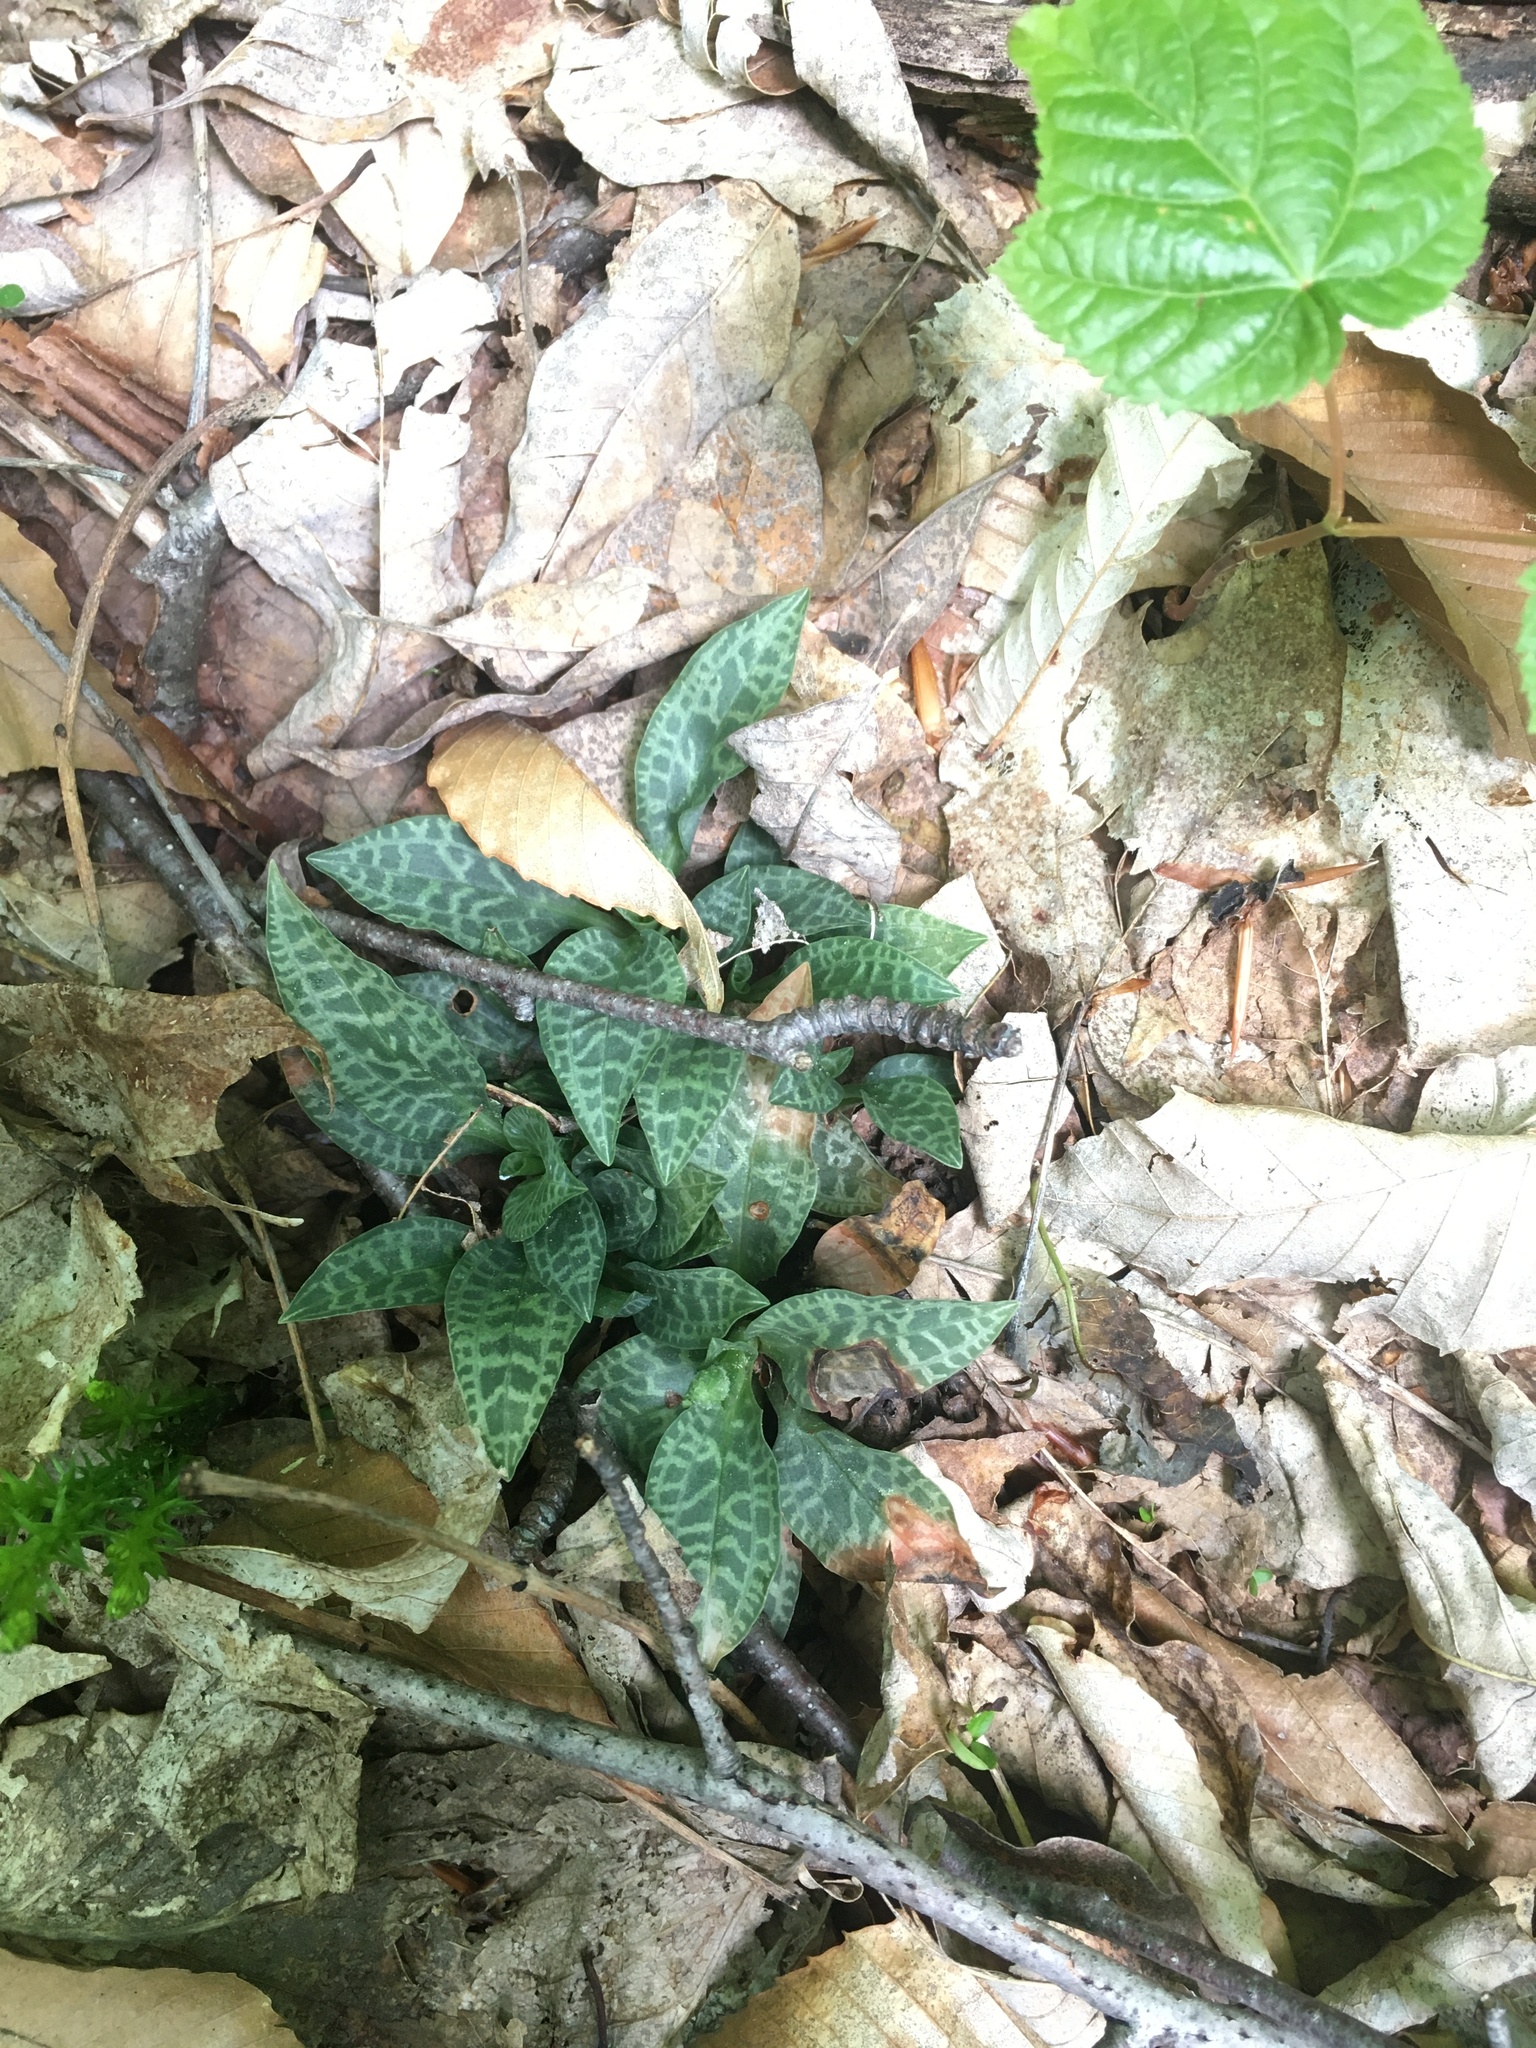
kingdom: Plantae
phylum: Tracheophyta
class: Liliopsida
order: Asparagales
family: Orchidaceae
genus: Goodyera
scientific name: Goodyera tesselata
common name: Checkered rattlesnake-plantain
